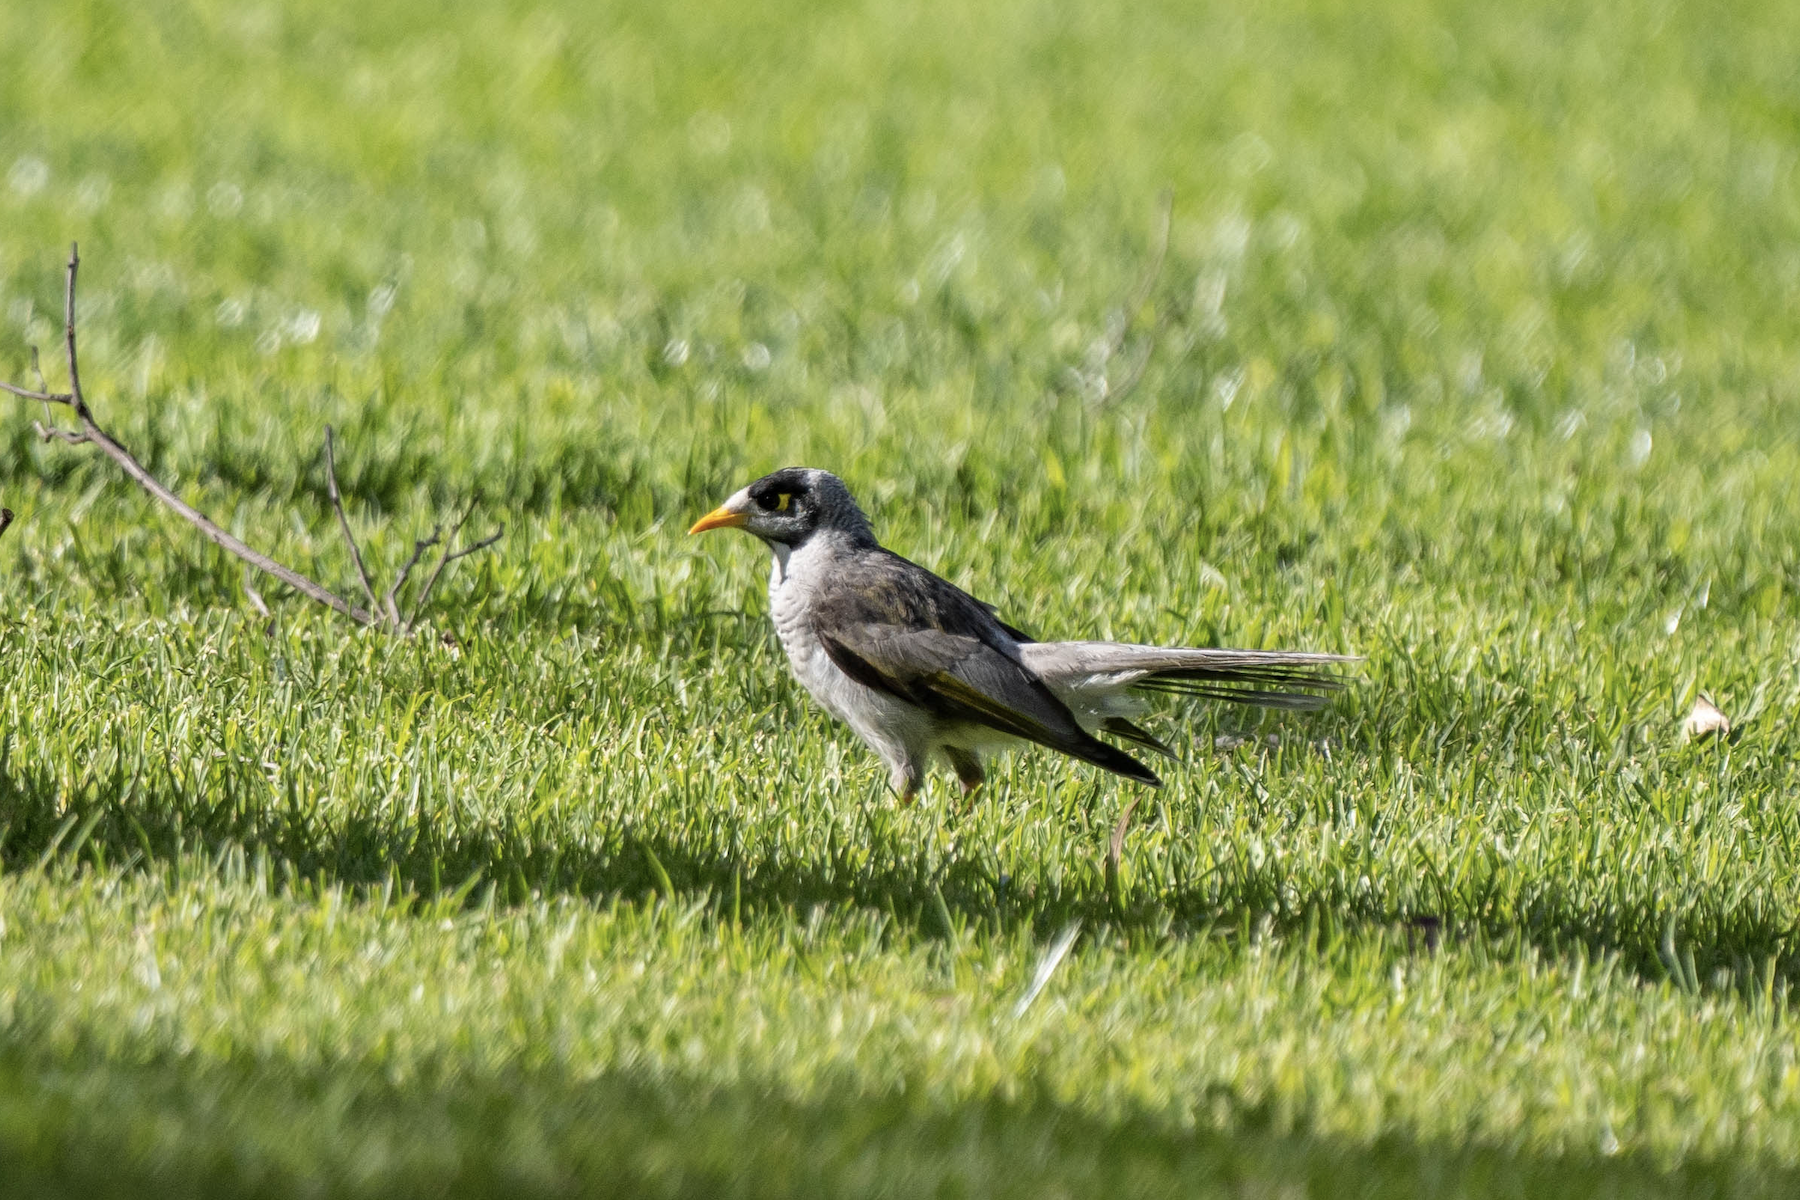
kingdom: Animalia
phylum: Chordata
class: Aves
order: Passeriformes
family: Meliphagidae
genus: Manorina
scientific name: Manorina melanocephala
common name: Noisy miner
